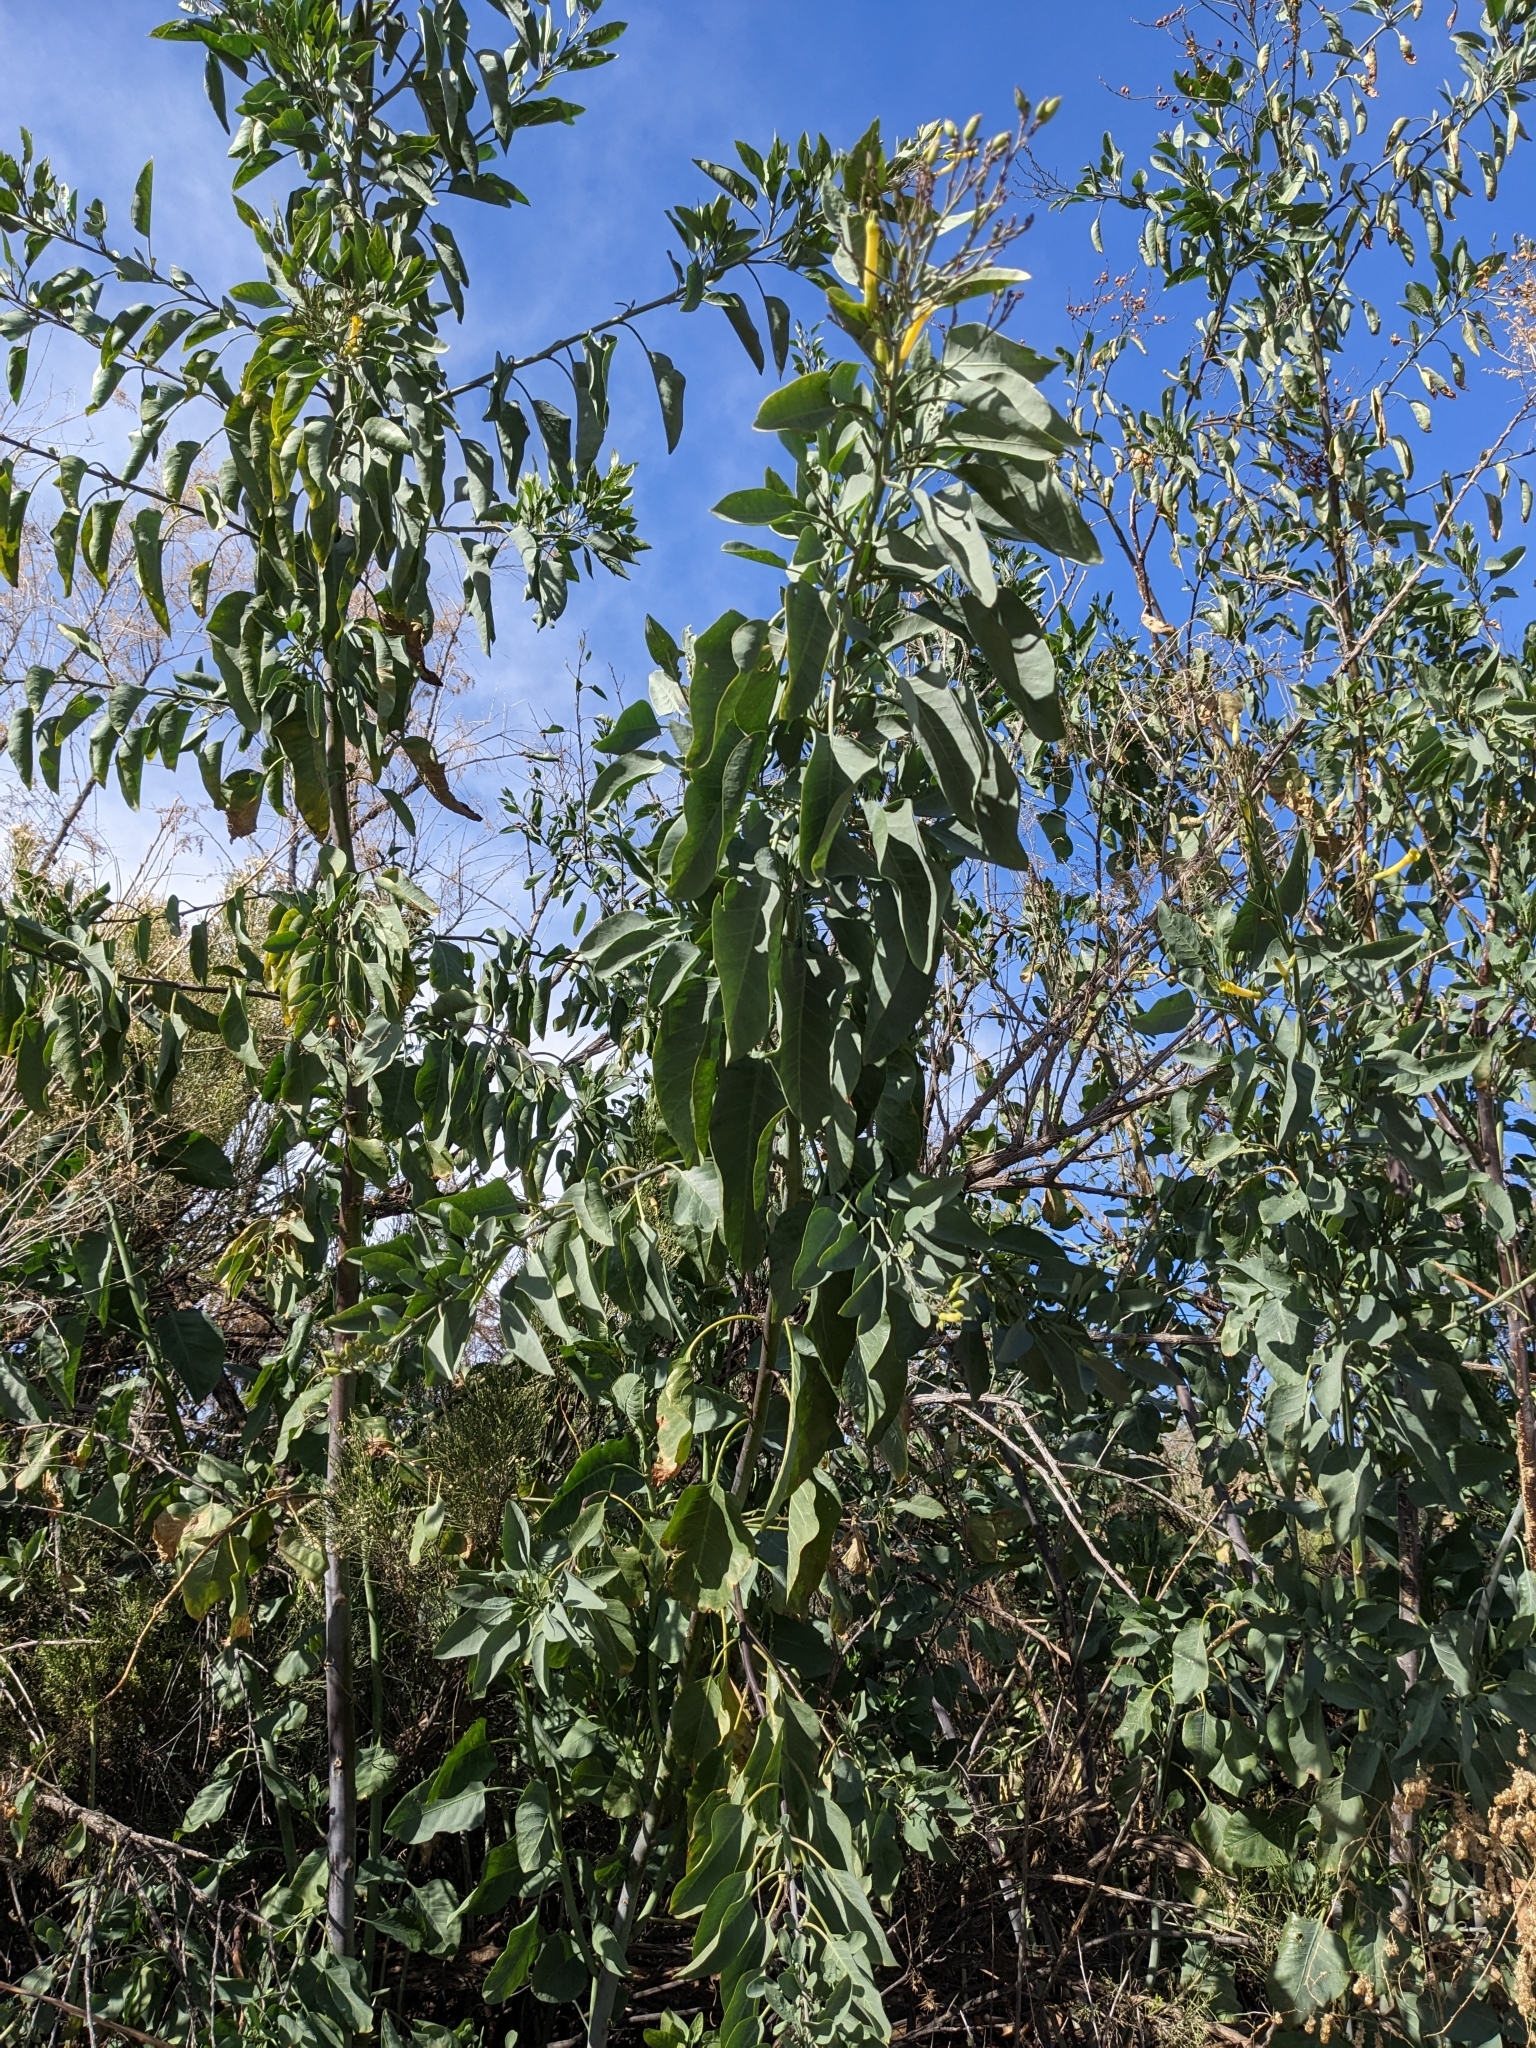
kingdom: Plantae
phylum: Tracheophyta
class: Magnoliopsida
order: Solanales
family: Solanaceae
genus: Nicotiana
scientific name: Nicotiana glauca
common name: Tree tobacco
